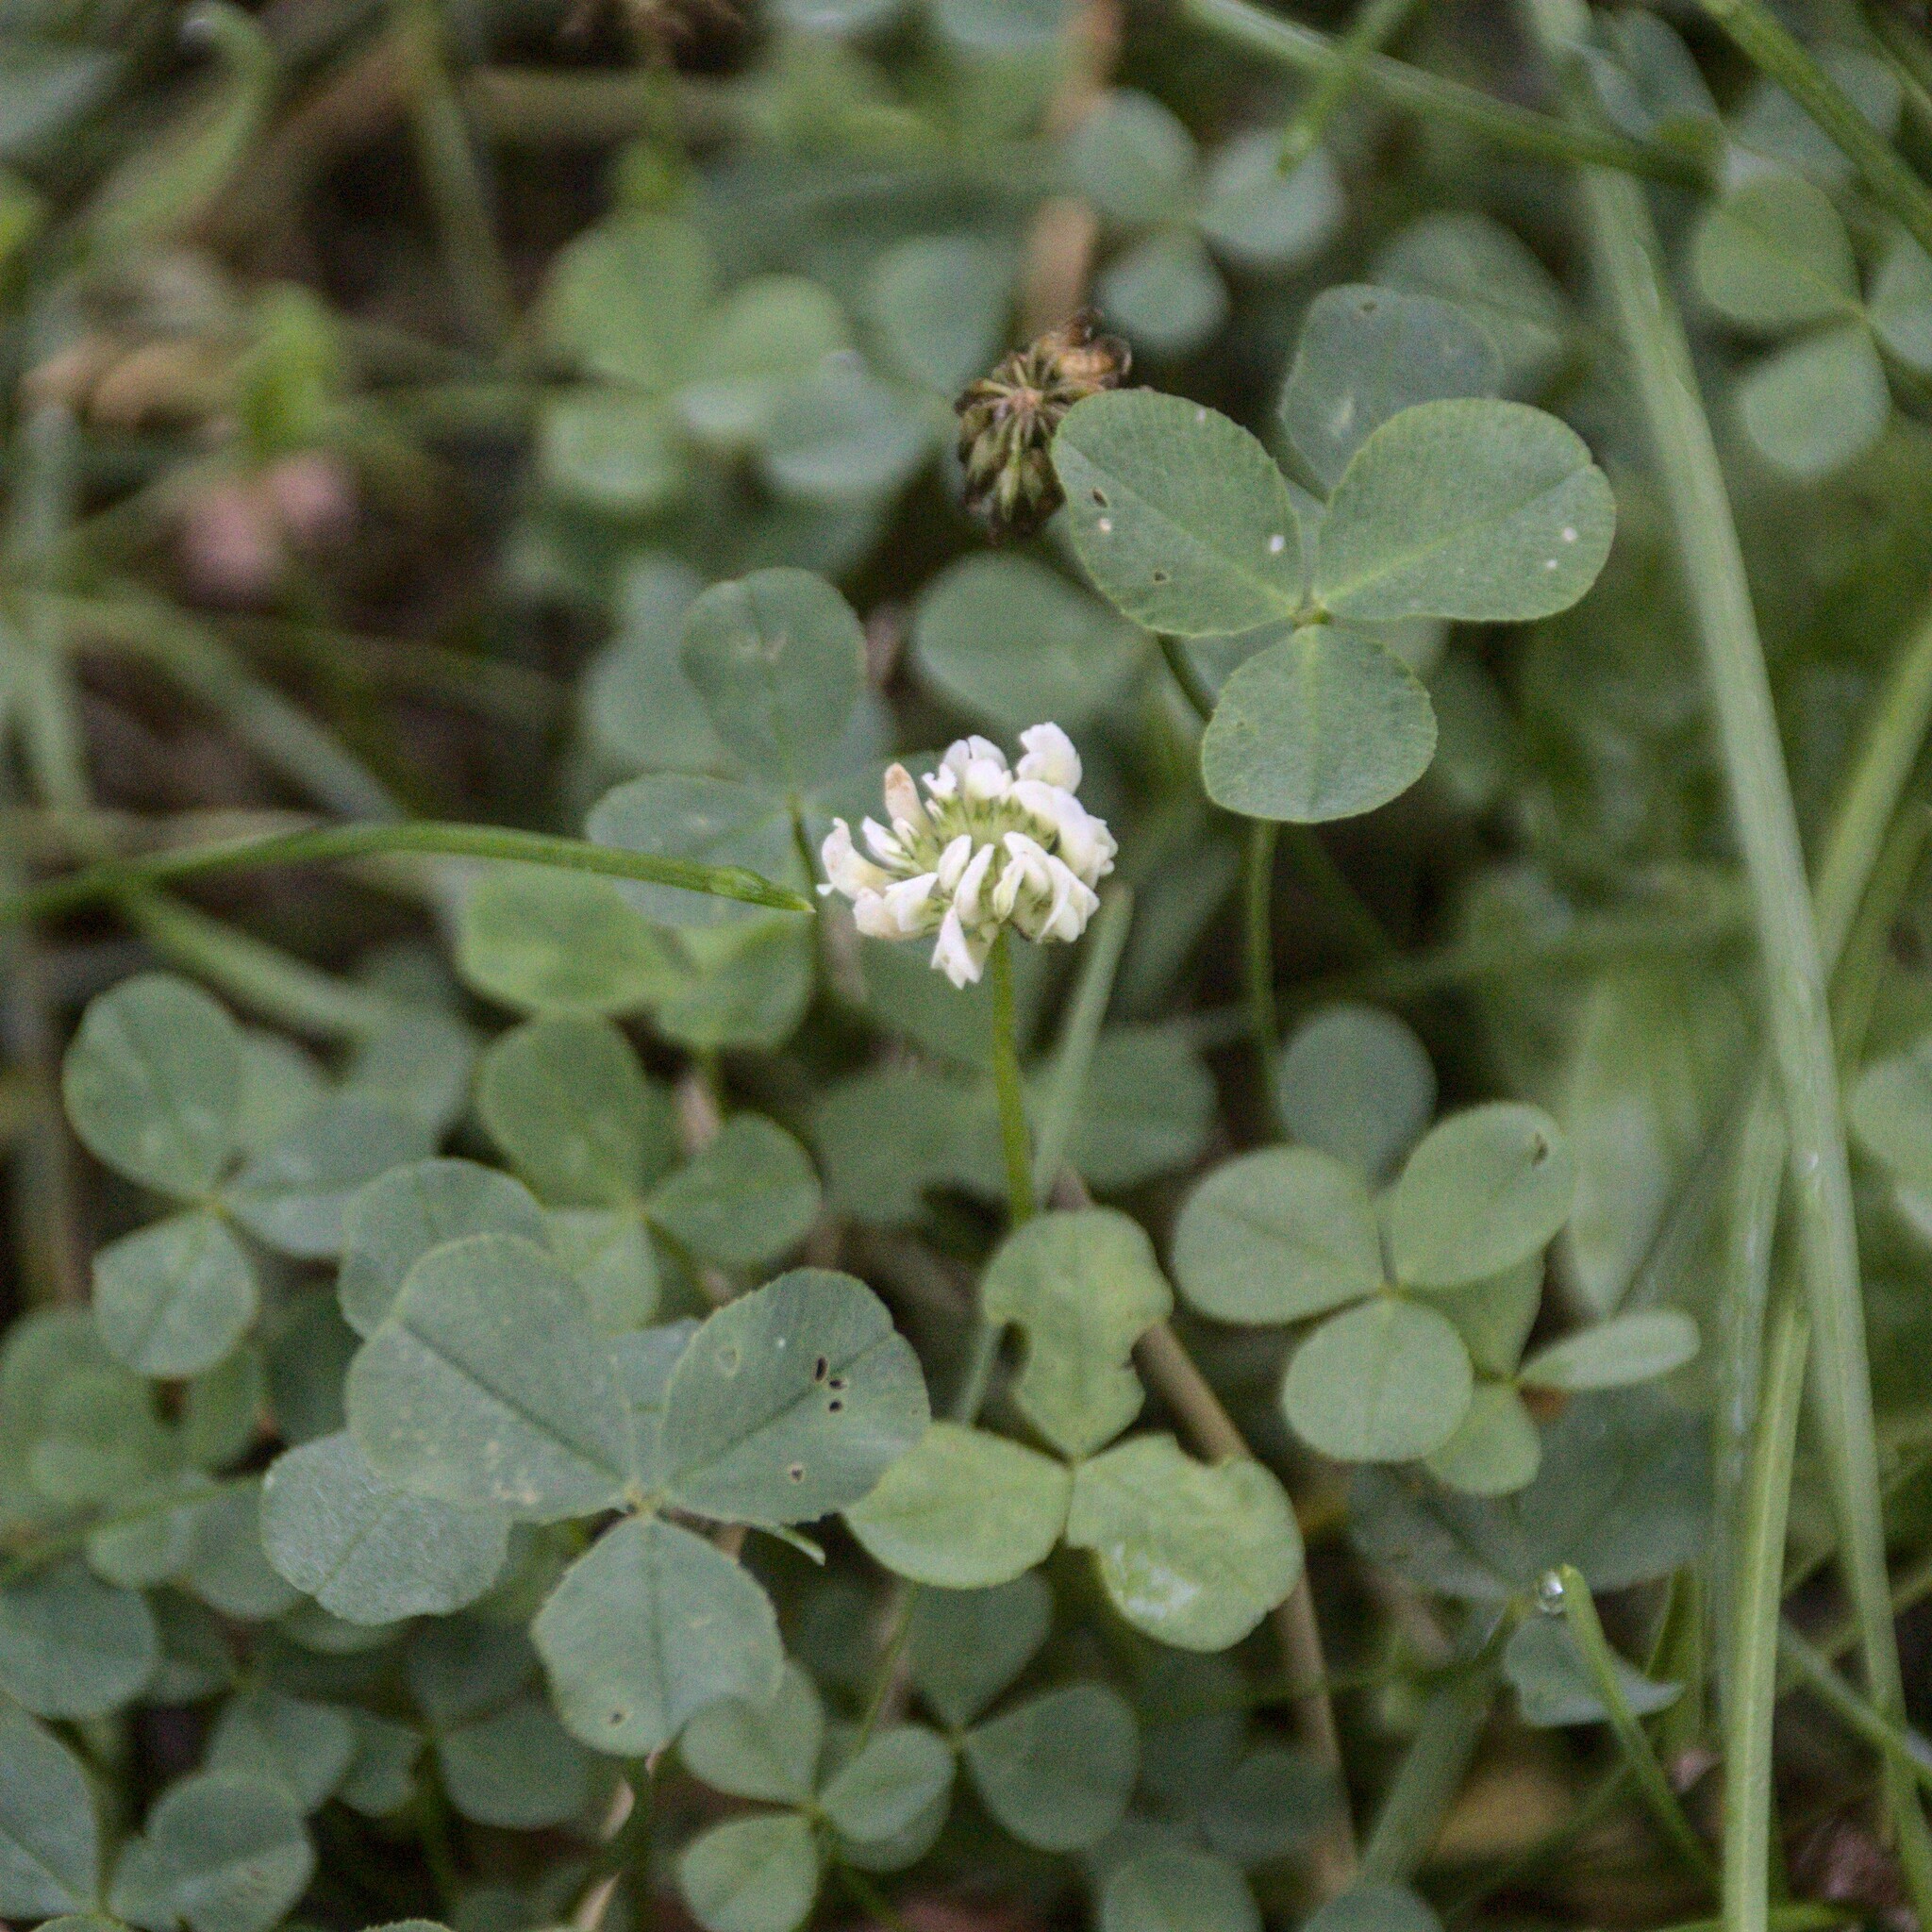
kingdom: Plantae
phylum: Tracheophyta
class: Magnoliopsida
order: Fabales
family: Fabaceae
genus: Trifolium
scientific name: Trifolium repens
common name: White clover
